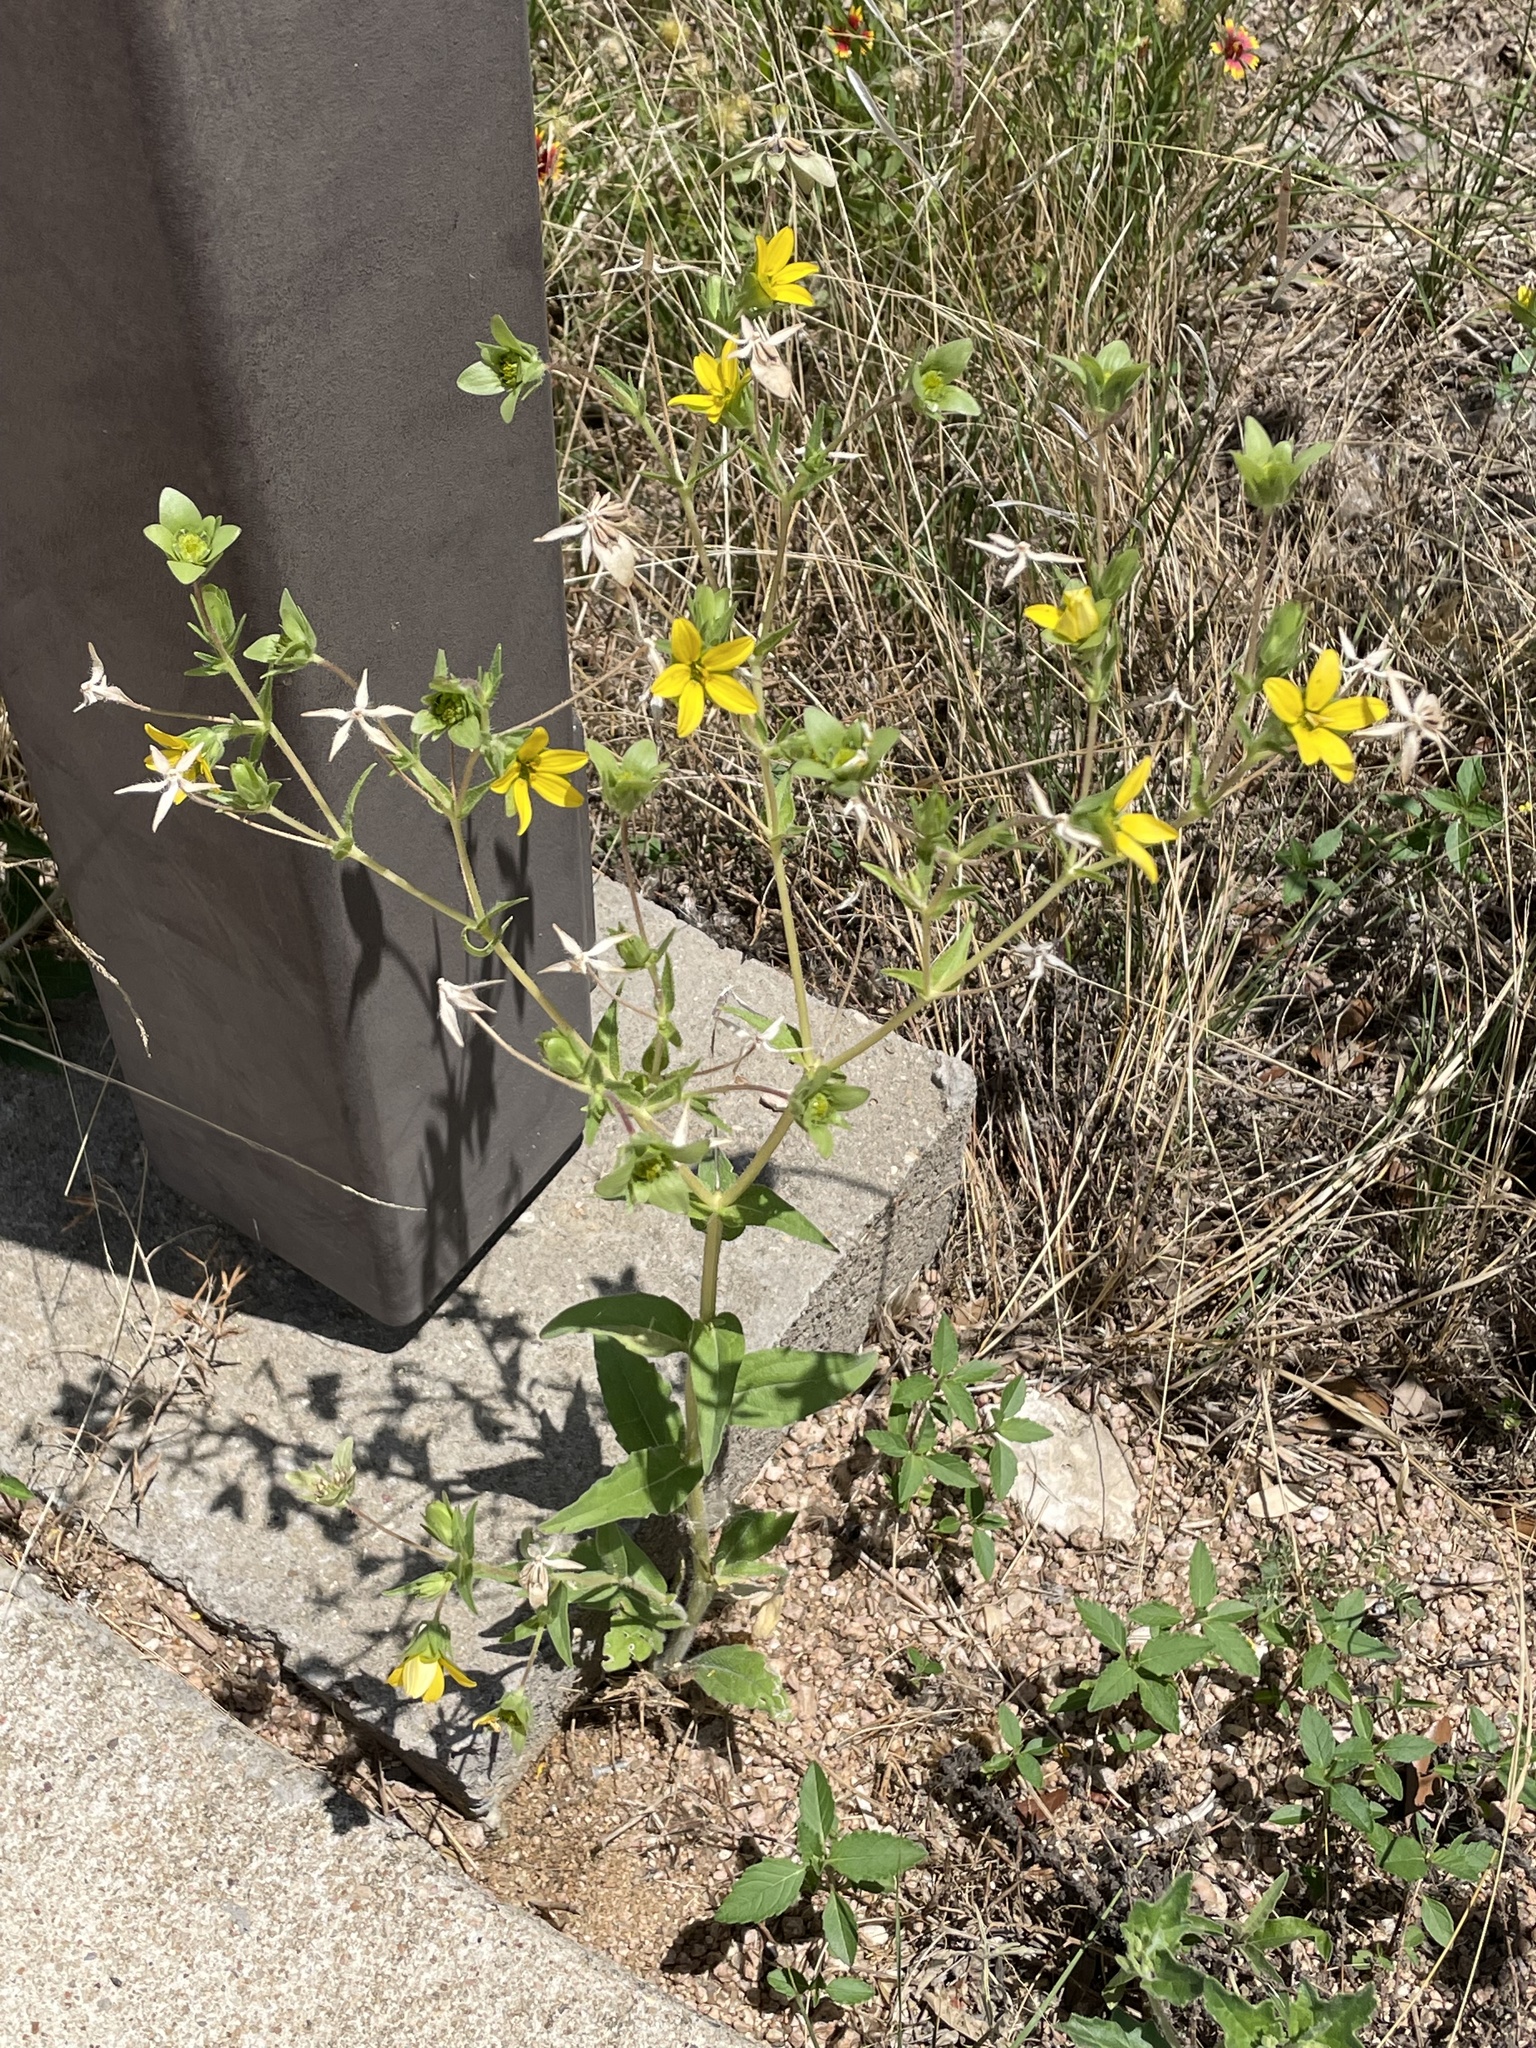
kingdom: Plantae
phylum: Tracheophyta
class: Magnoliopsida
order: Asterales
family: Asteraceae
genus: Lindheimera
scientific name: Lindheimera texana
